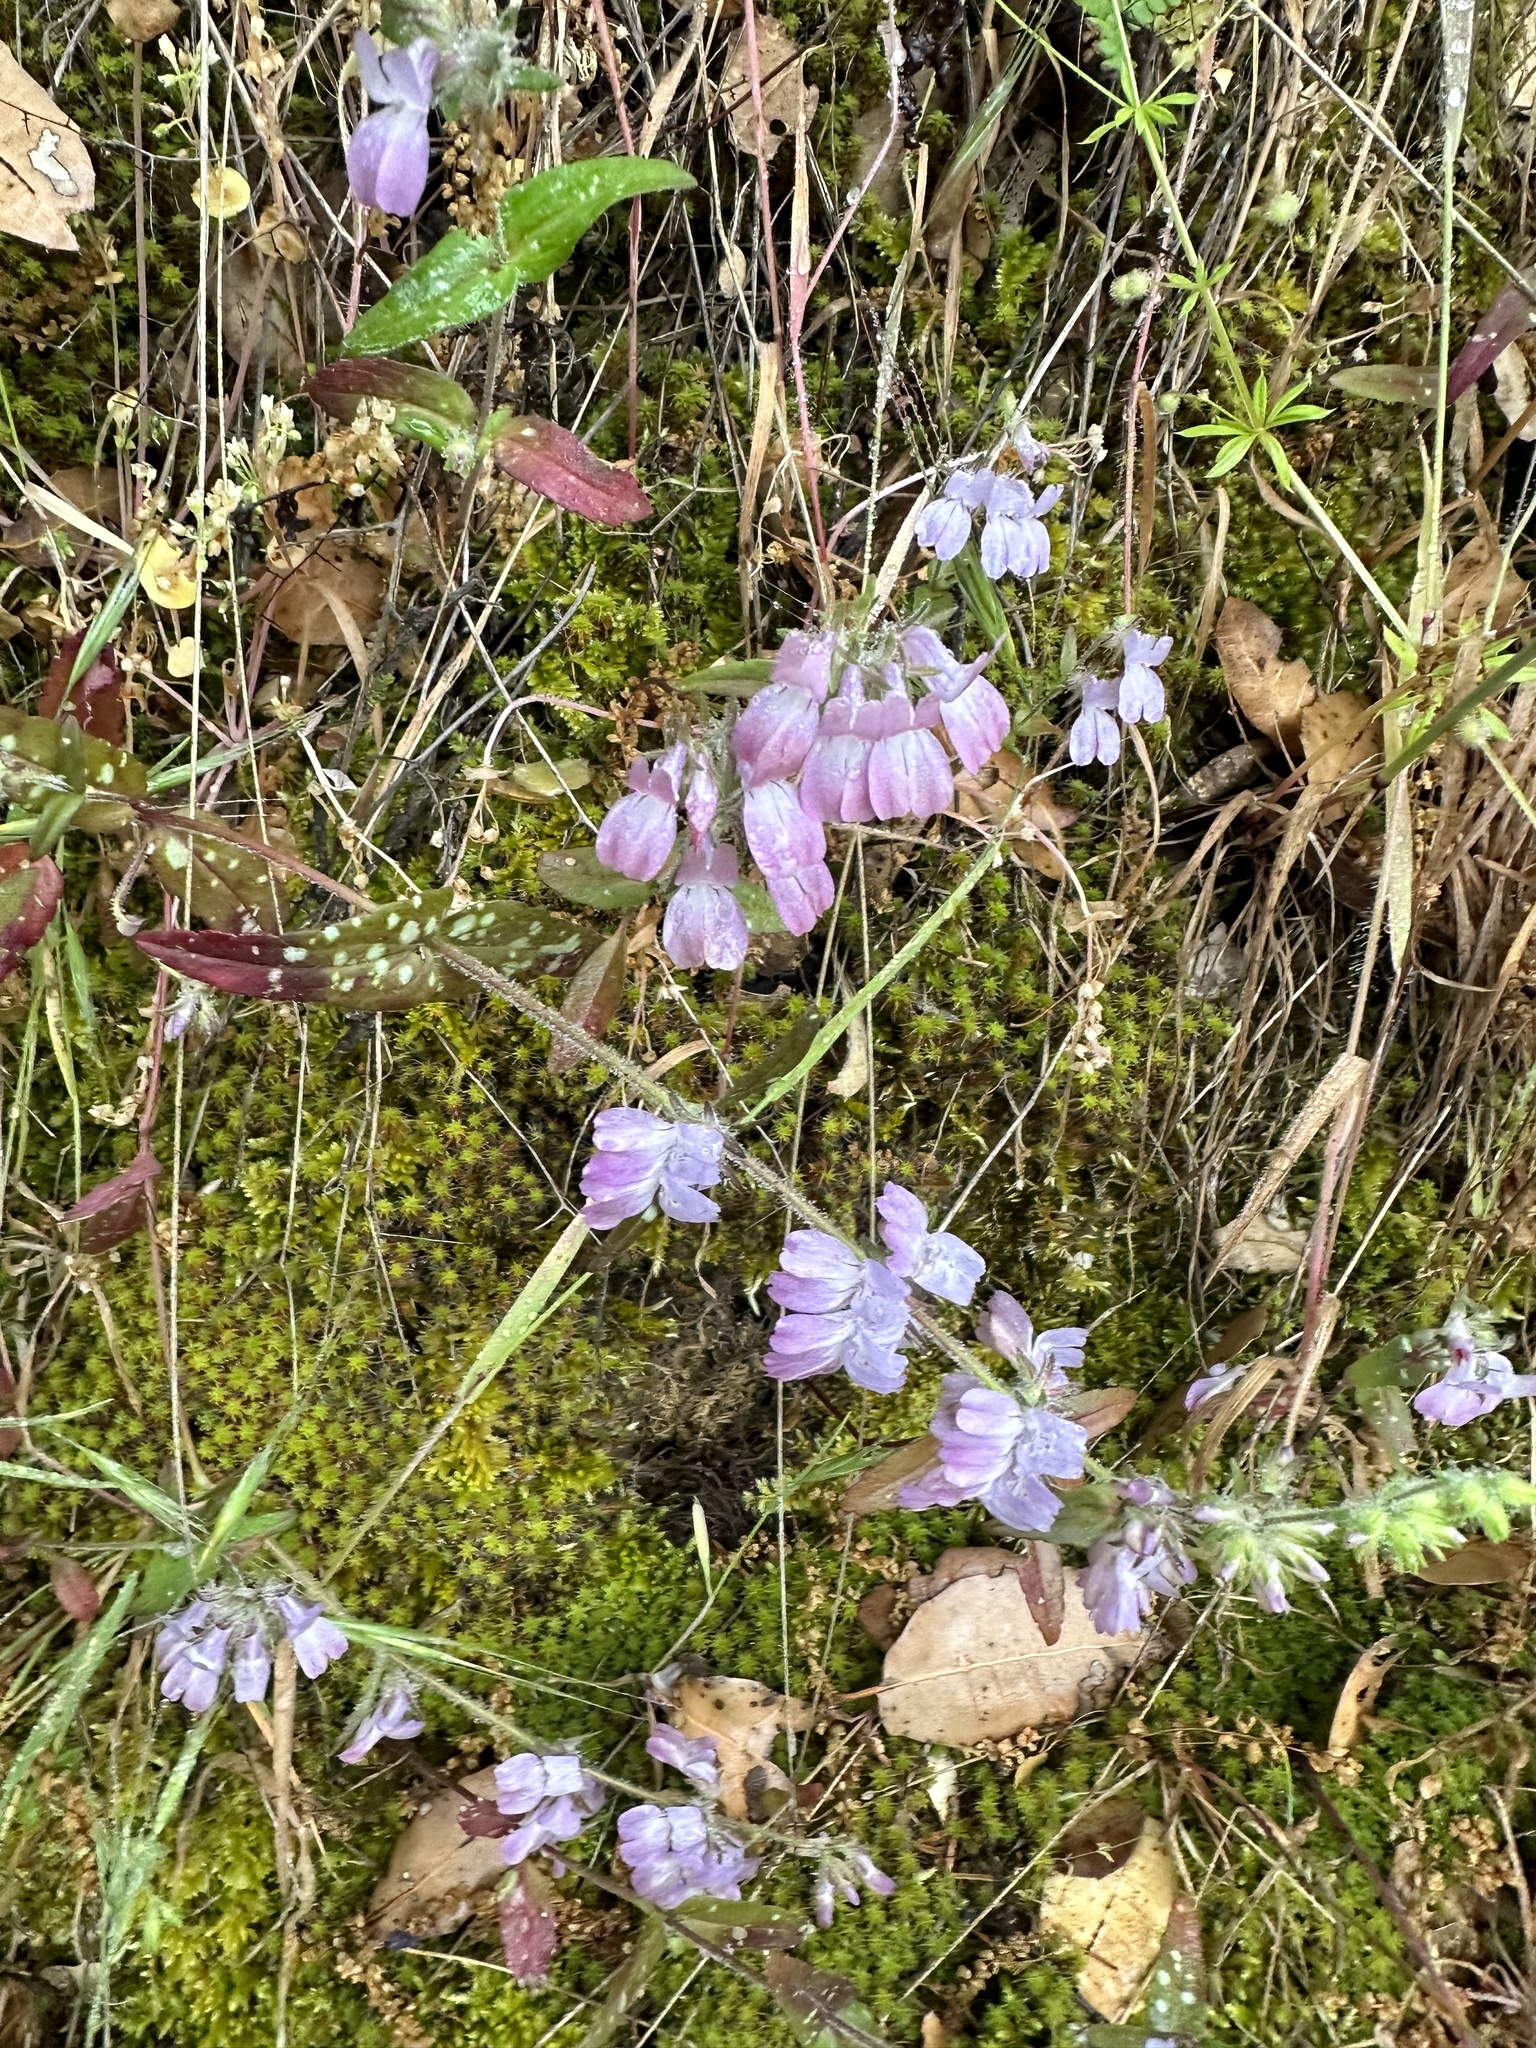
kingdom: Plantae
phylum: Tracheophyta
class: Magnoliopsida
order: Lamiales
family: Plantaginaceae
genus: Collinsia
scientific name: Collinsia heterophylla
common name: Chinese-houses
